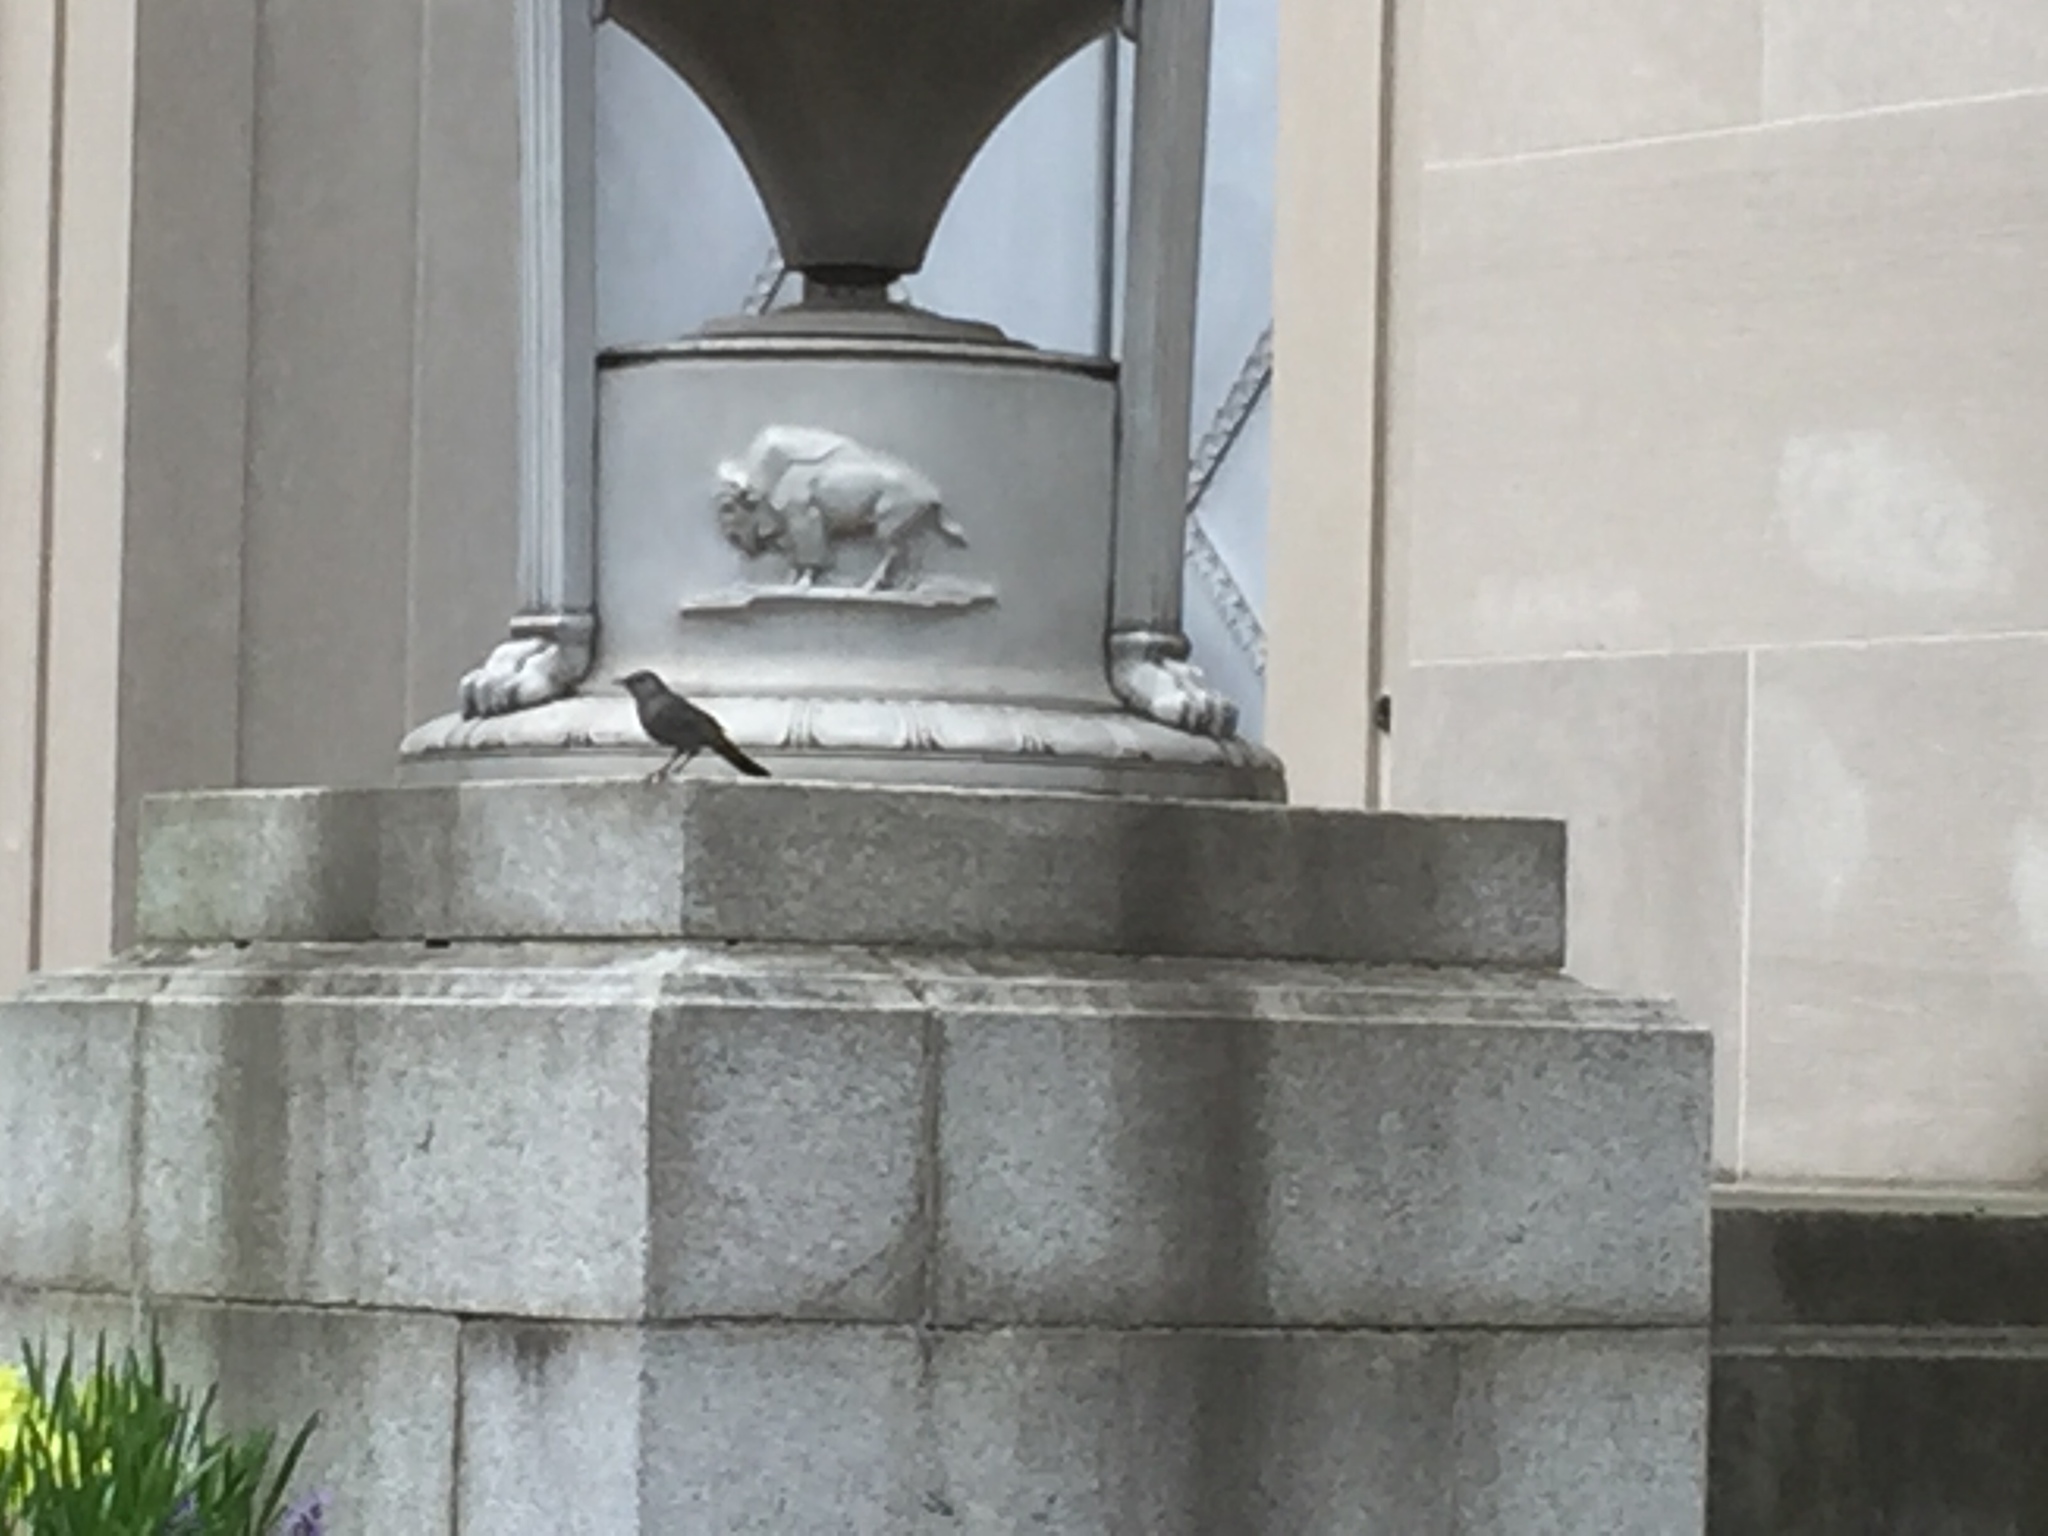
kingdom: Animalia
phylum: Chordata
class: Aves
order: Passeriformes
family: Mimidae
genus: Dumetella
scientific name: Dumetella carolinensis
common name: Gray catbird
